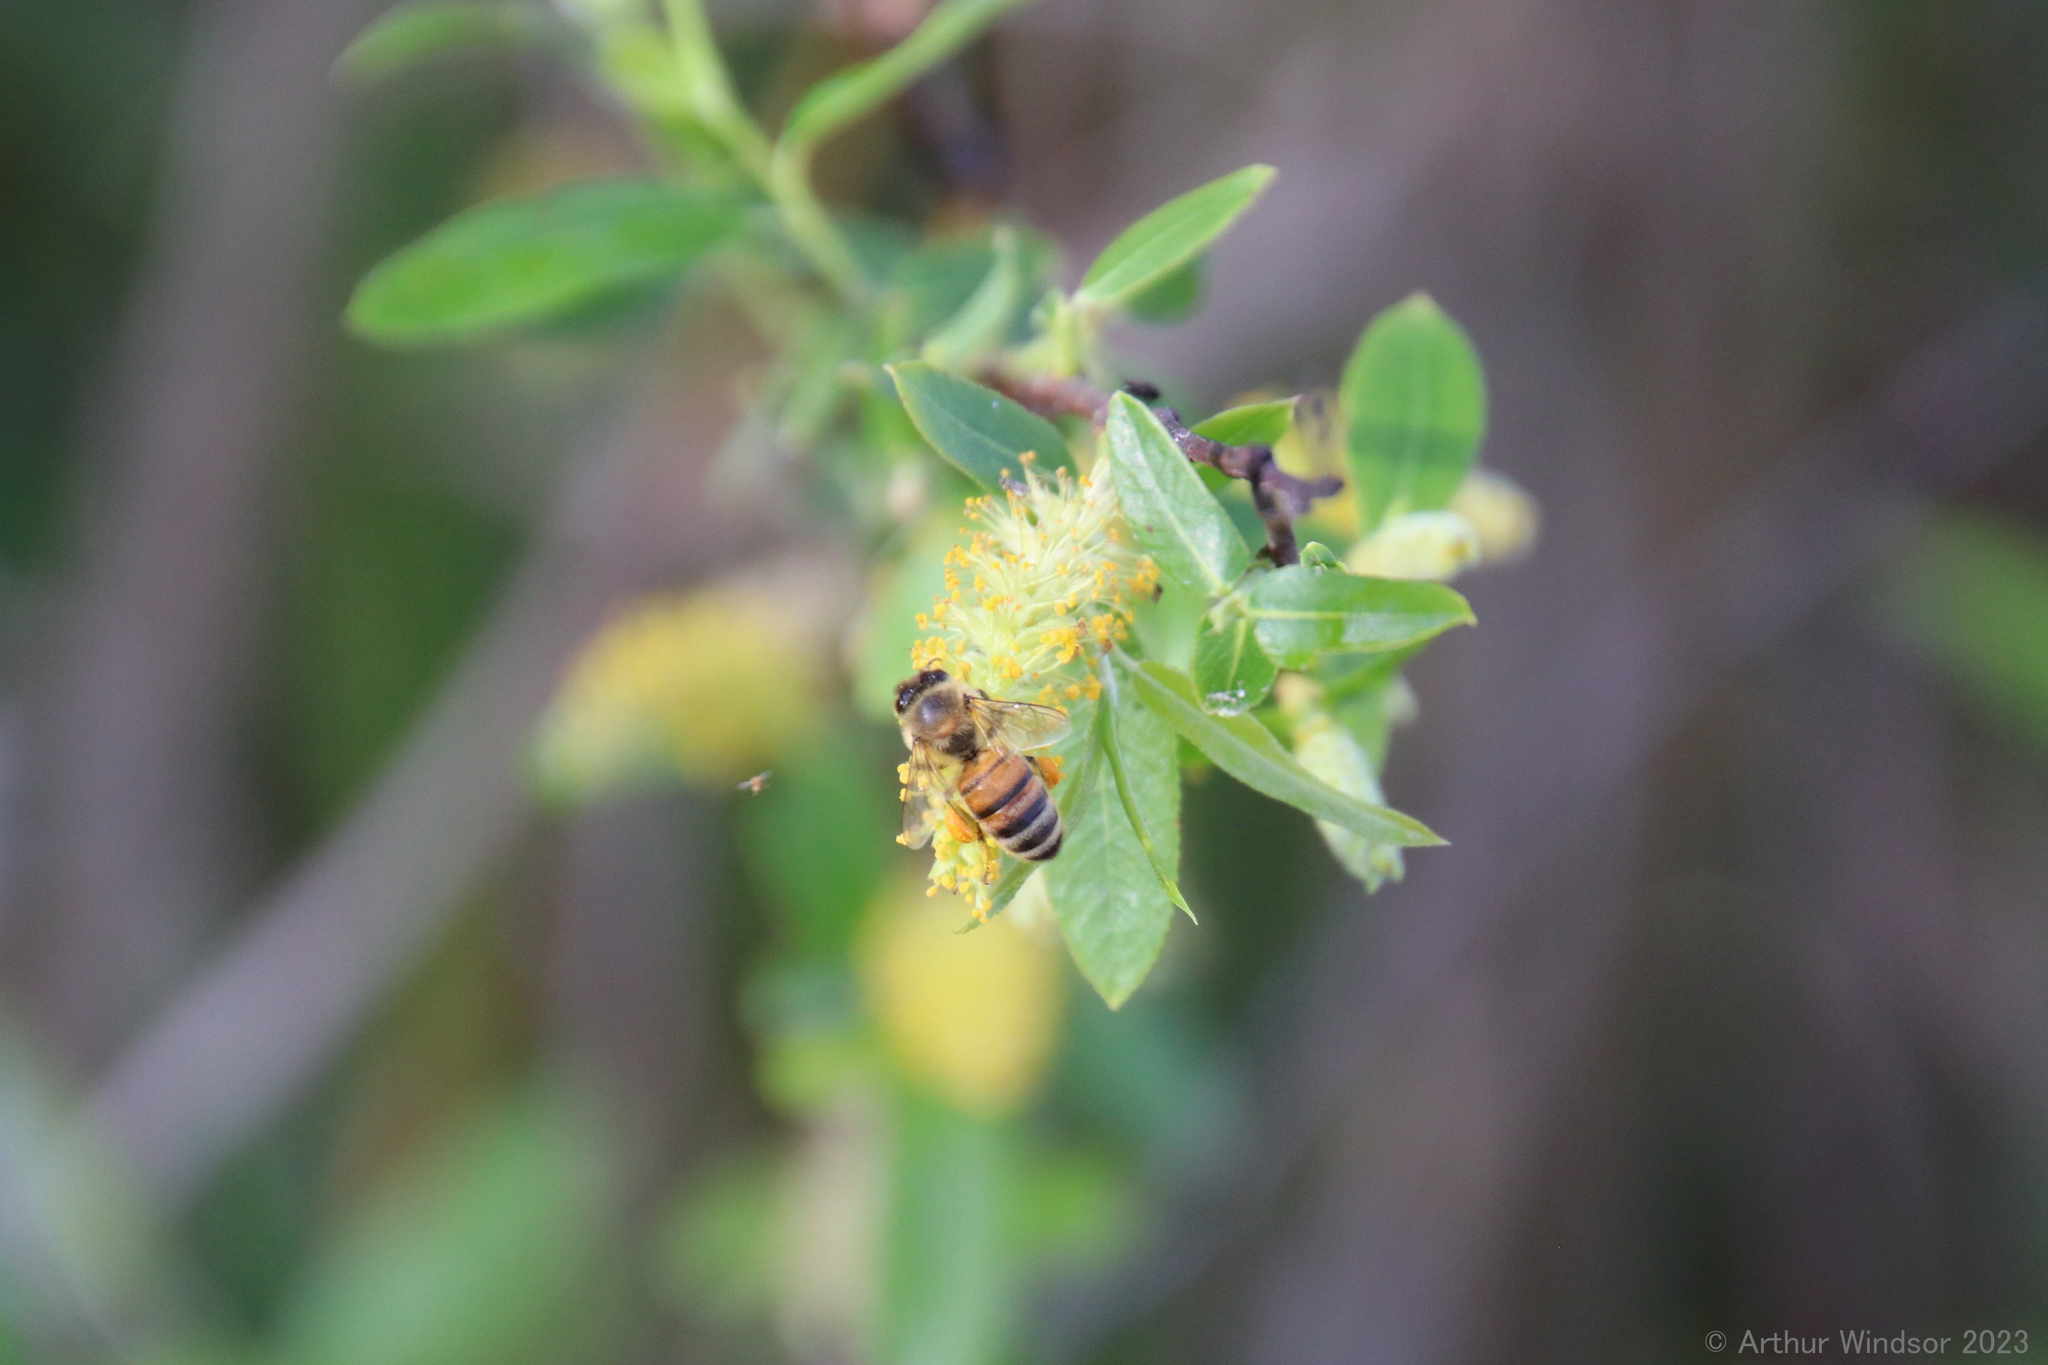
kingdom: Animalia
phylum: Arthropoda
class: Insecta
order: Hymenoptera
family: Apidae
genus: Apis
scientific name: Apis mellifera
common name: Honey bee
